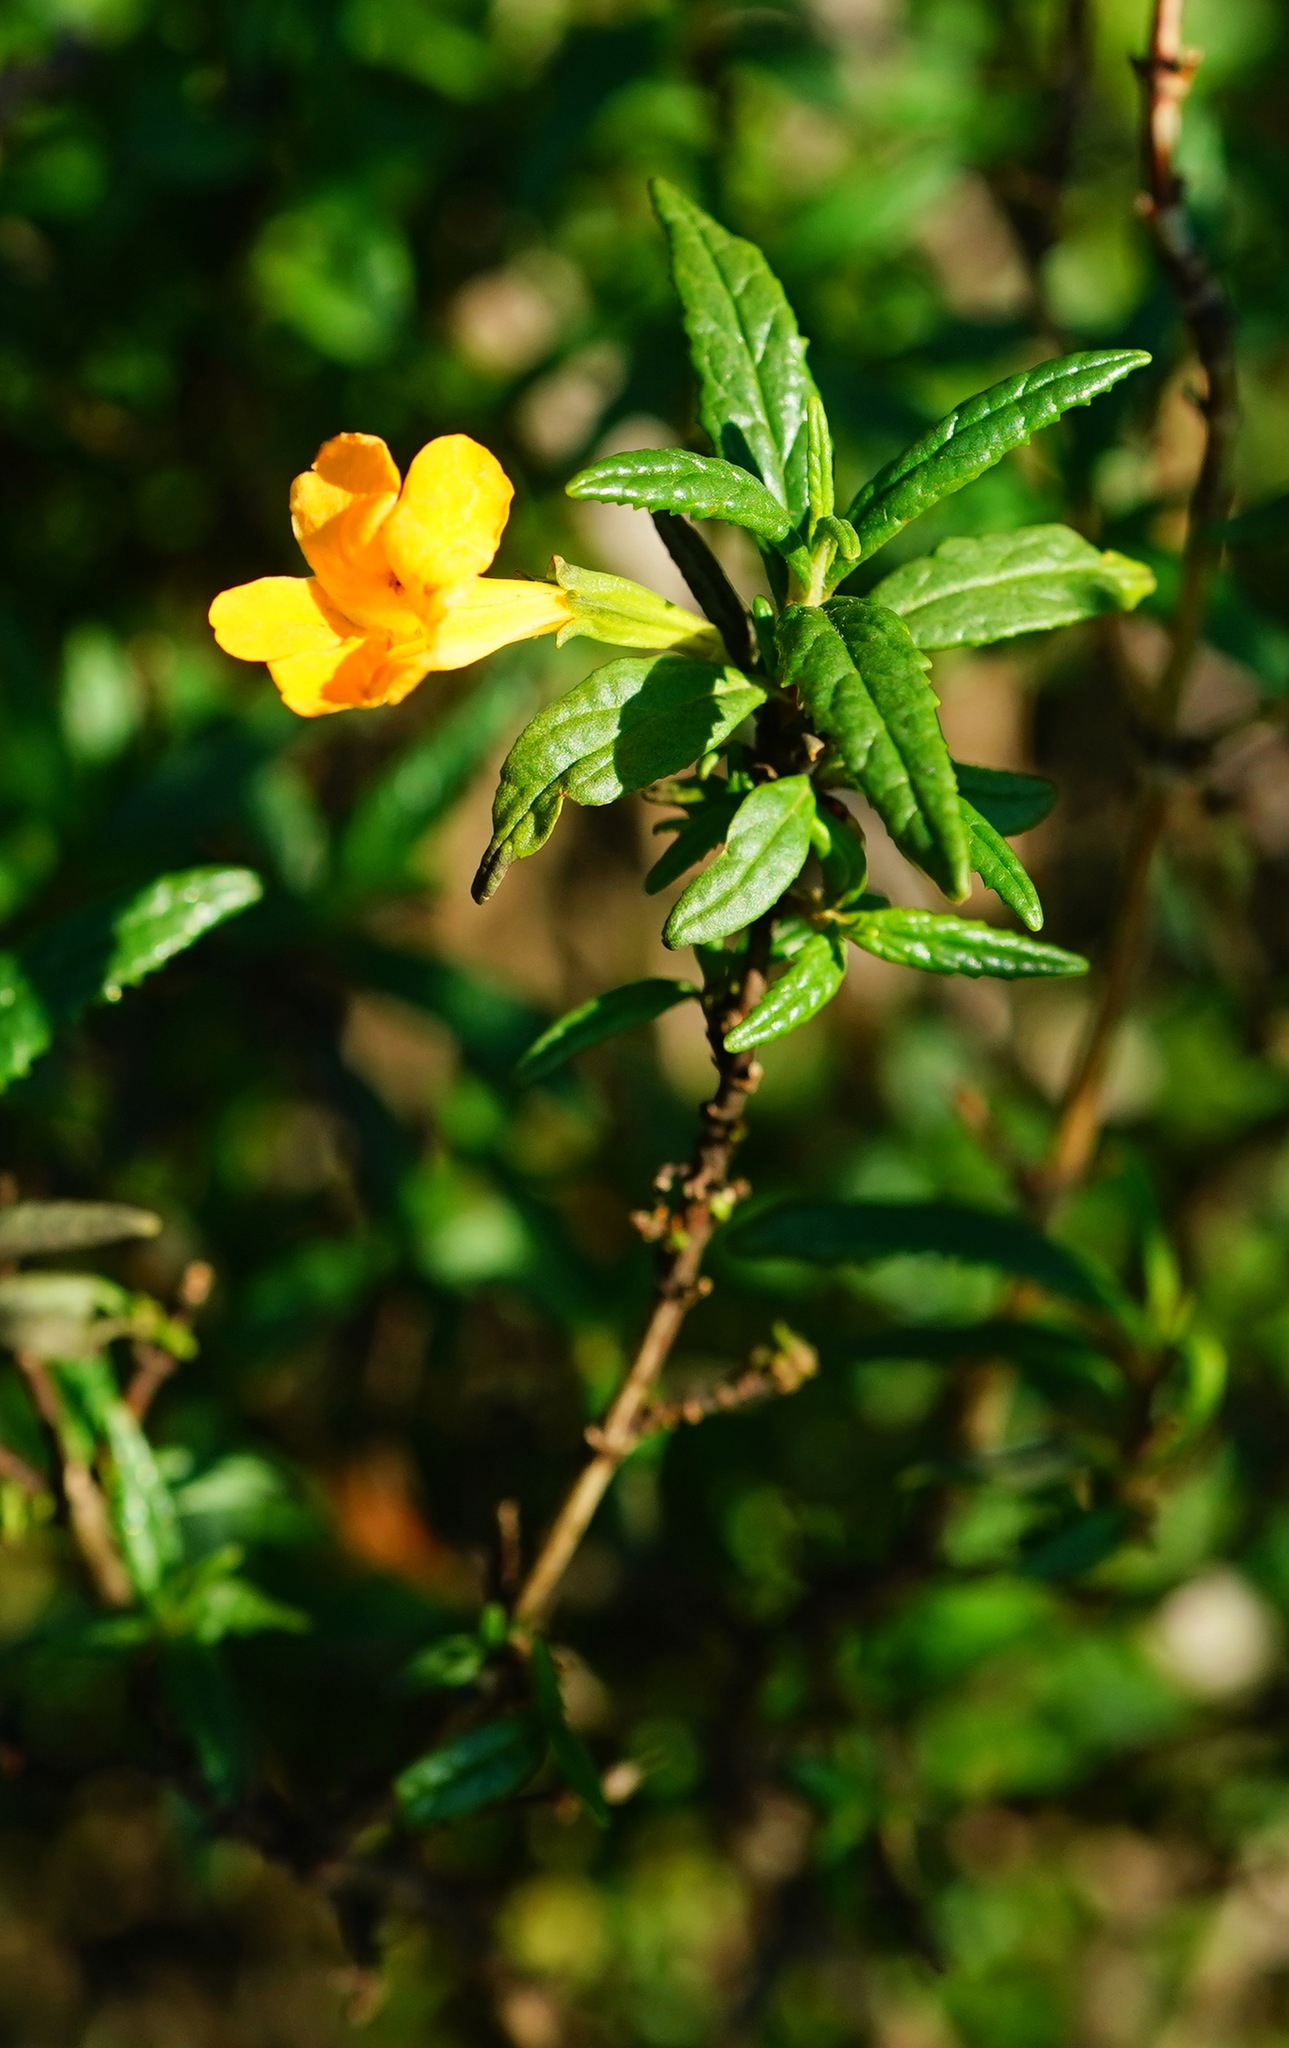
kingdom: Plantae
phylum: Tracheophyta
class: Magnoliopsida
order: Lamiales
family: Phrymaceae
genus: Diplacus
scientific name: Diplacus aurantiacus
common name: Bush monkey-flower
